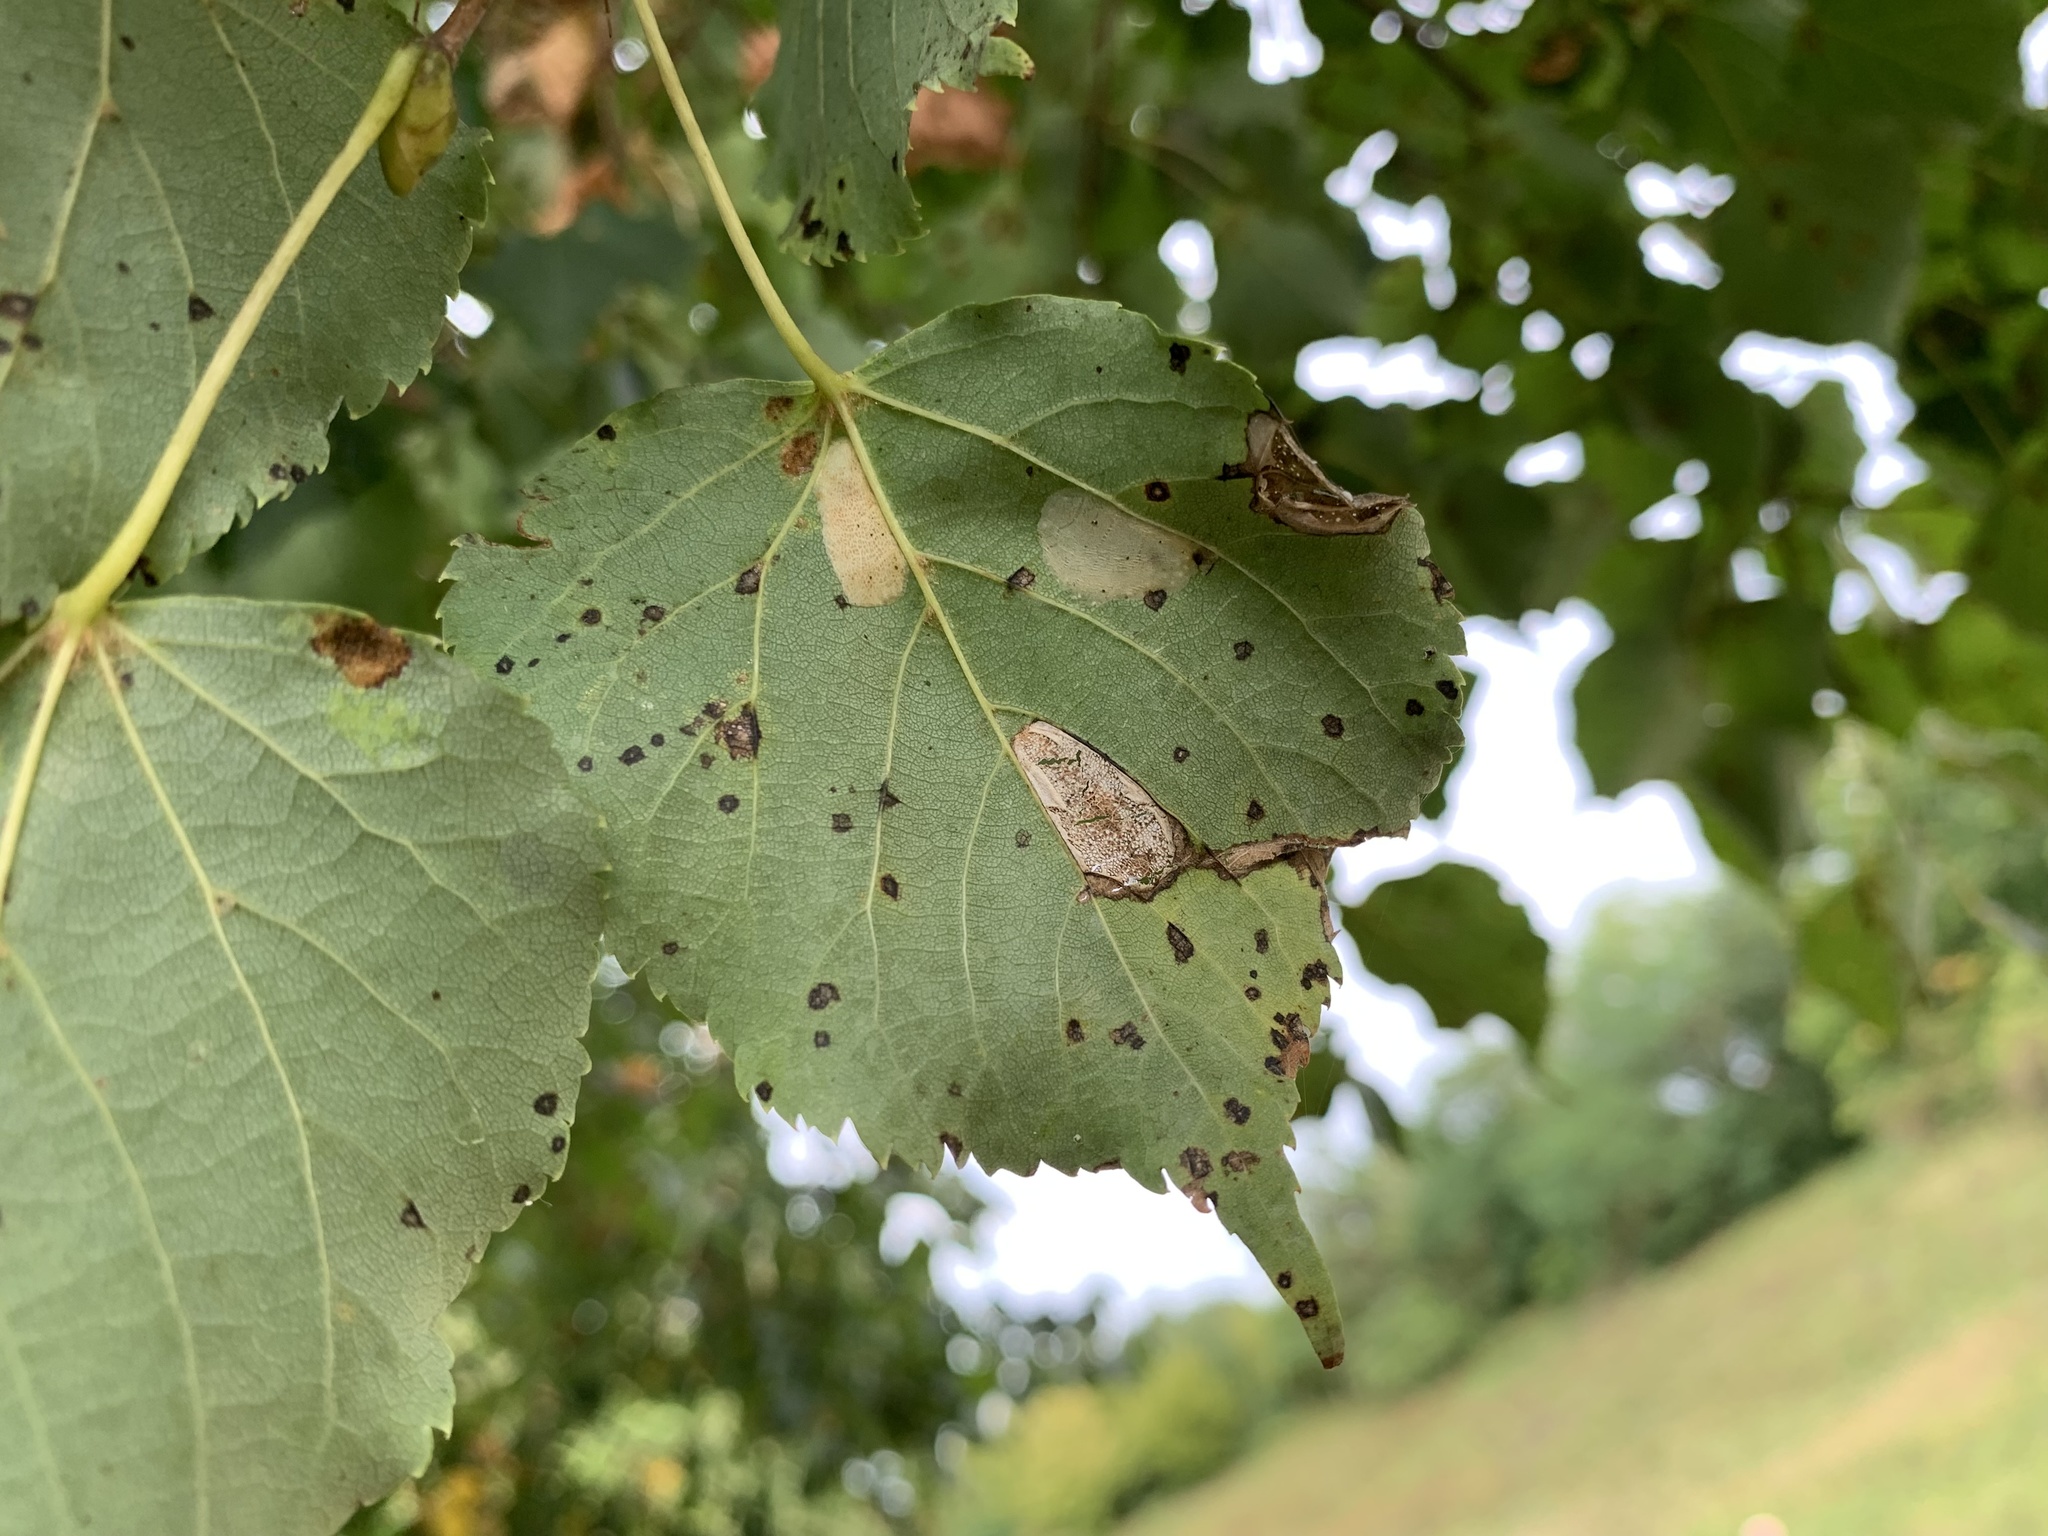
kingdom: Animalia
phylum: Arthropoda
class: Insecta
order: Lepidoptera
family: Gracillariidae
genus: Phyllonorycter
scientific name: Phyllonorycter issikii
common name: Linden midget
